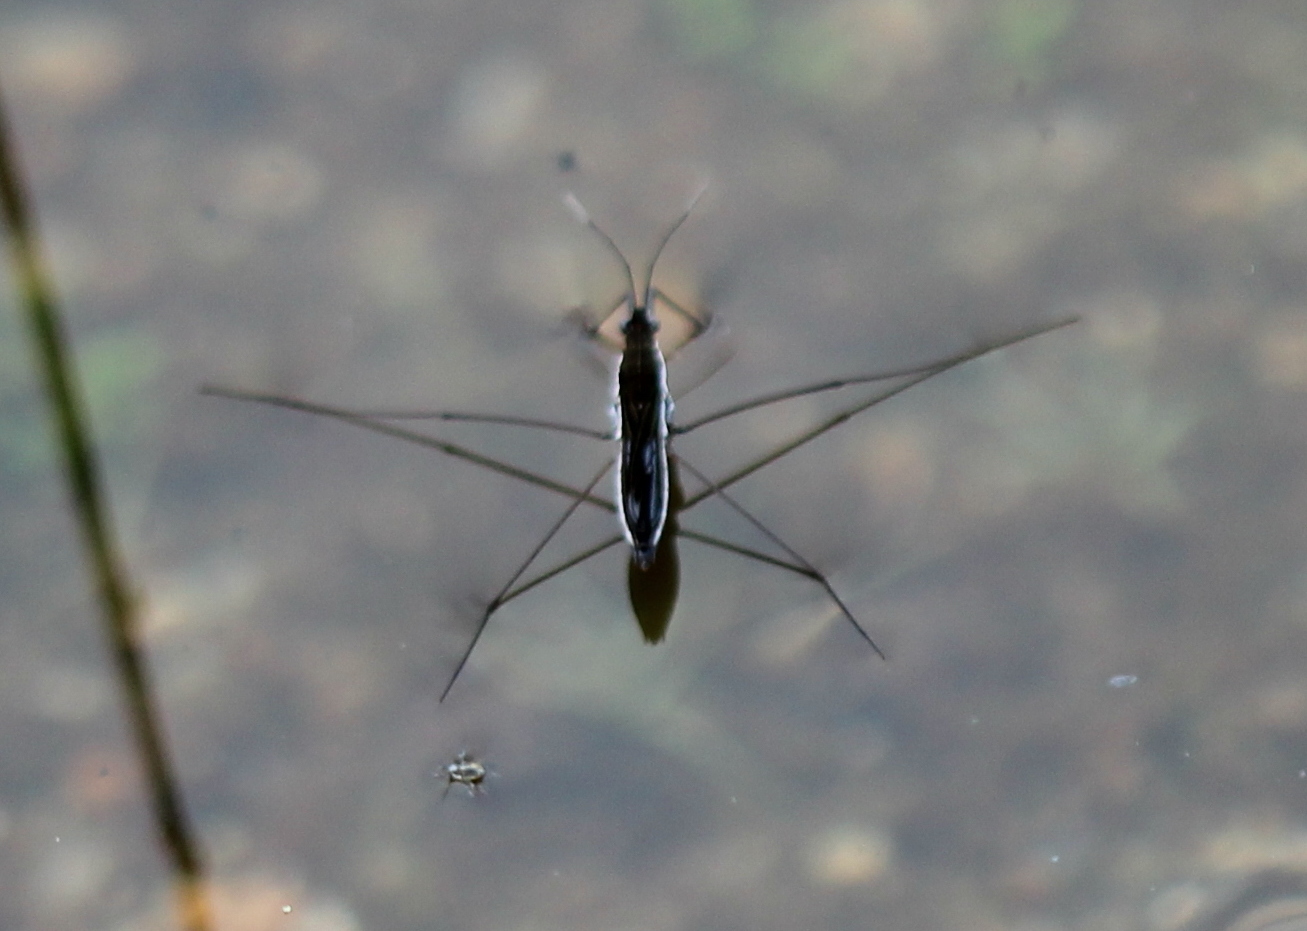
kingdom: Animalia
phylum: Arthropoda
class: Insecta
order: Hemiptera
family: Gerridae
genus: Limnoporus
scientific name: Limnoporus canaliculatus
